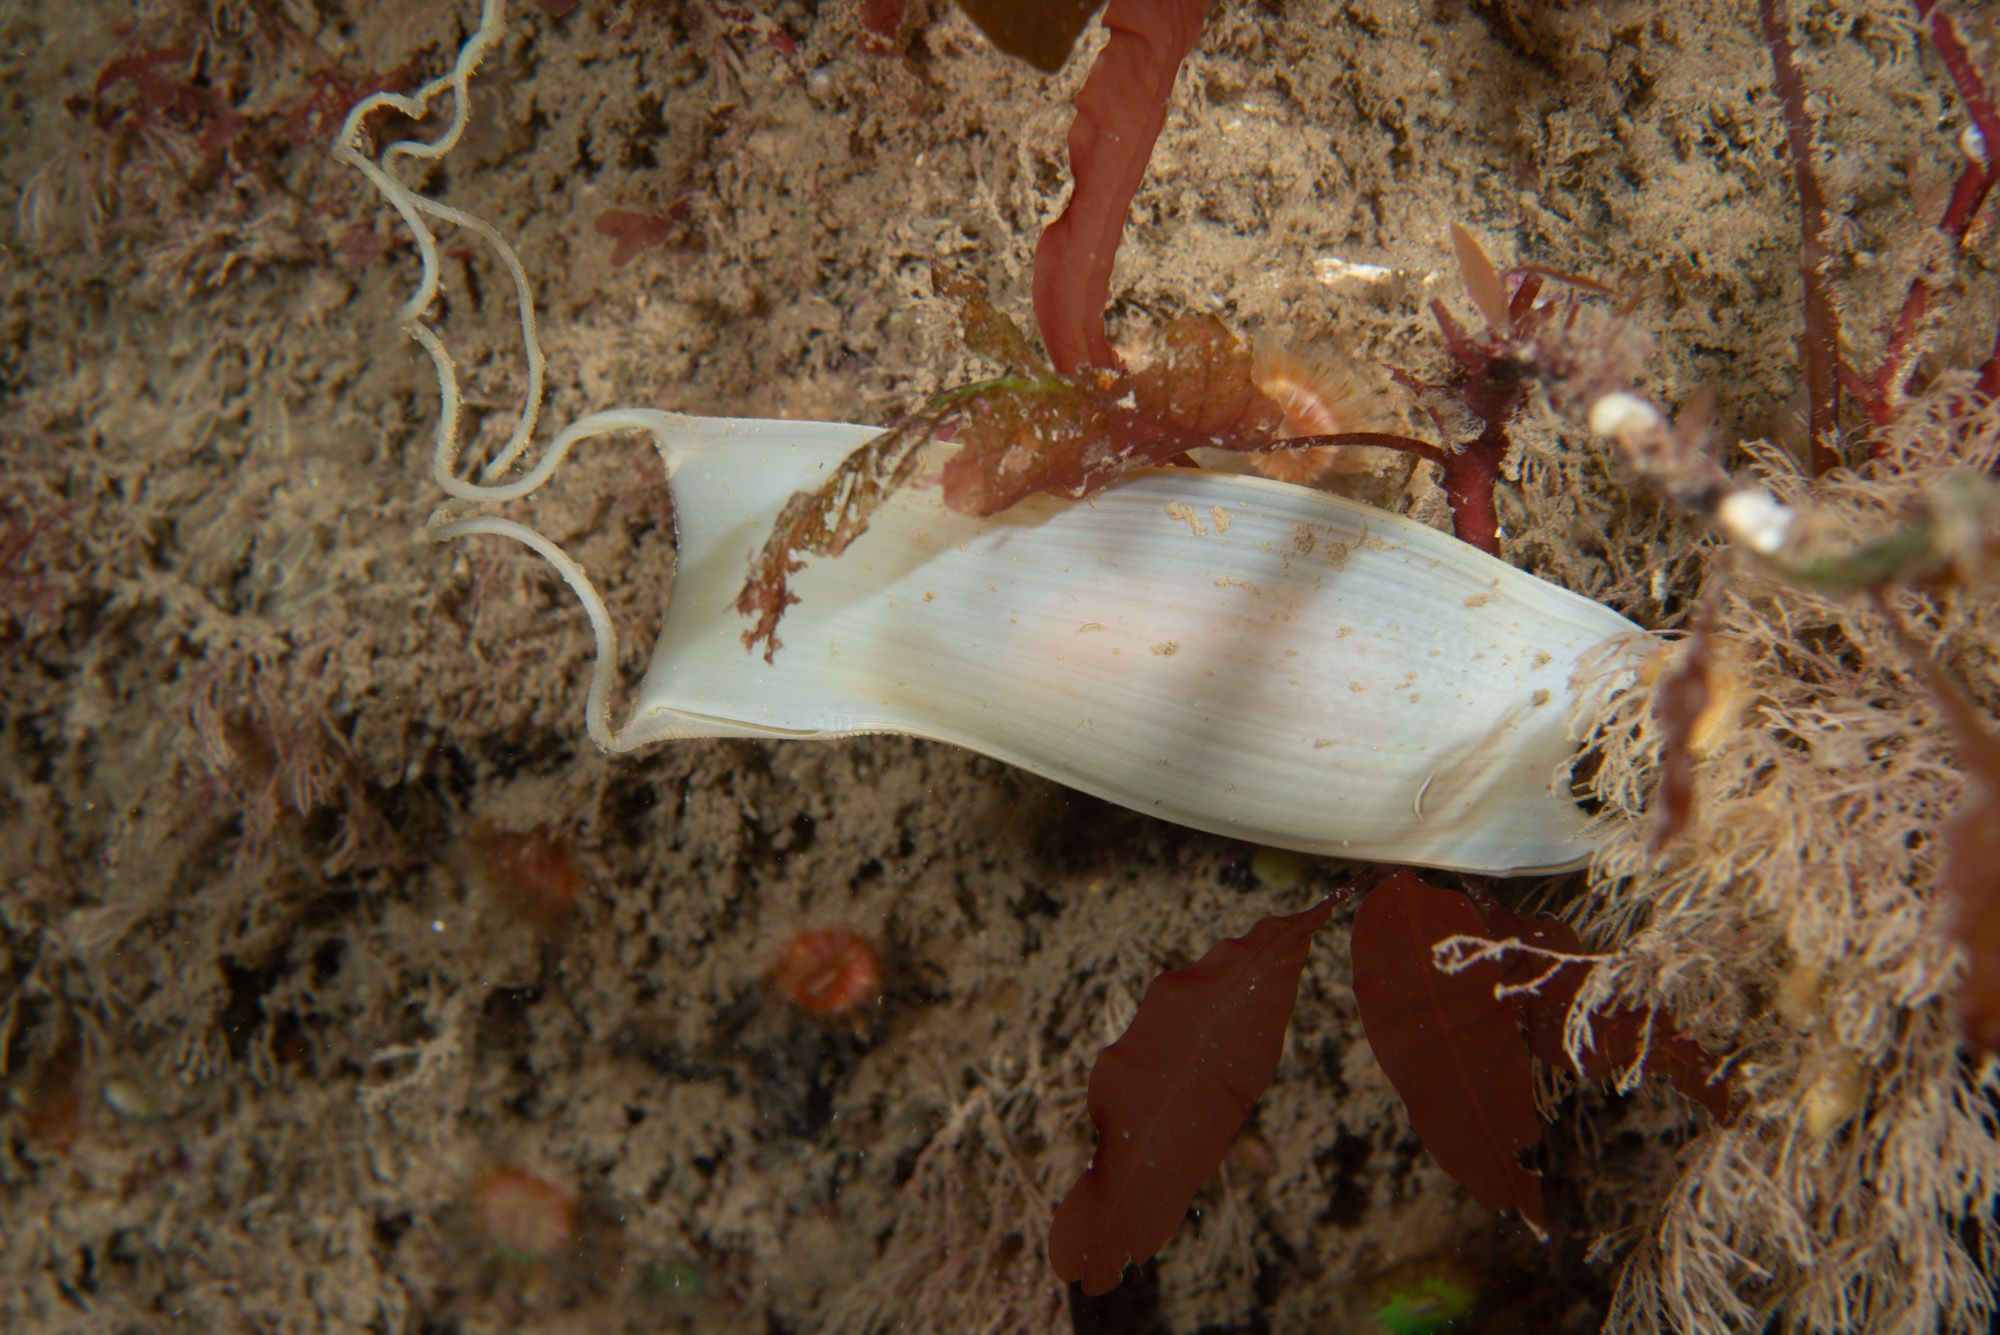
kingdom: Animalia
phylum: Chordata
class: Elasmobranchii
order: Carcharhiniformes
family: Scyliorhinidae
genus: Scyliorhinus
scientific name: Scyliorhinus stellaris
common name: Nursehound
